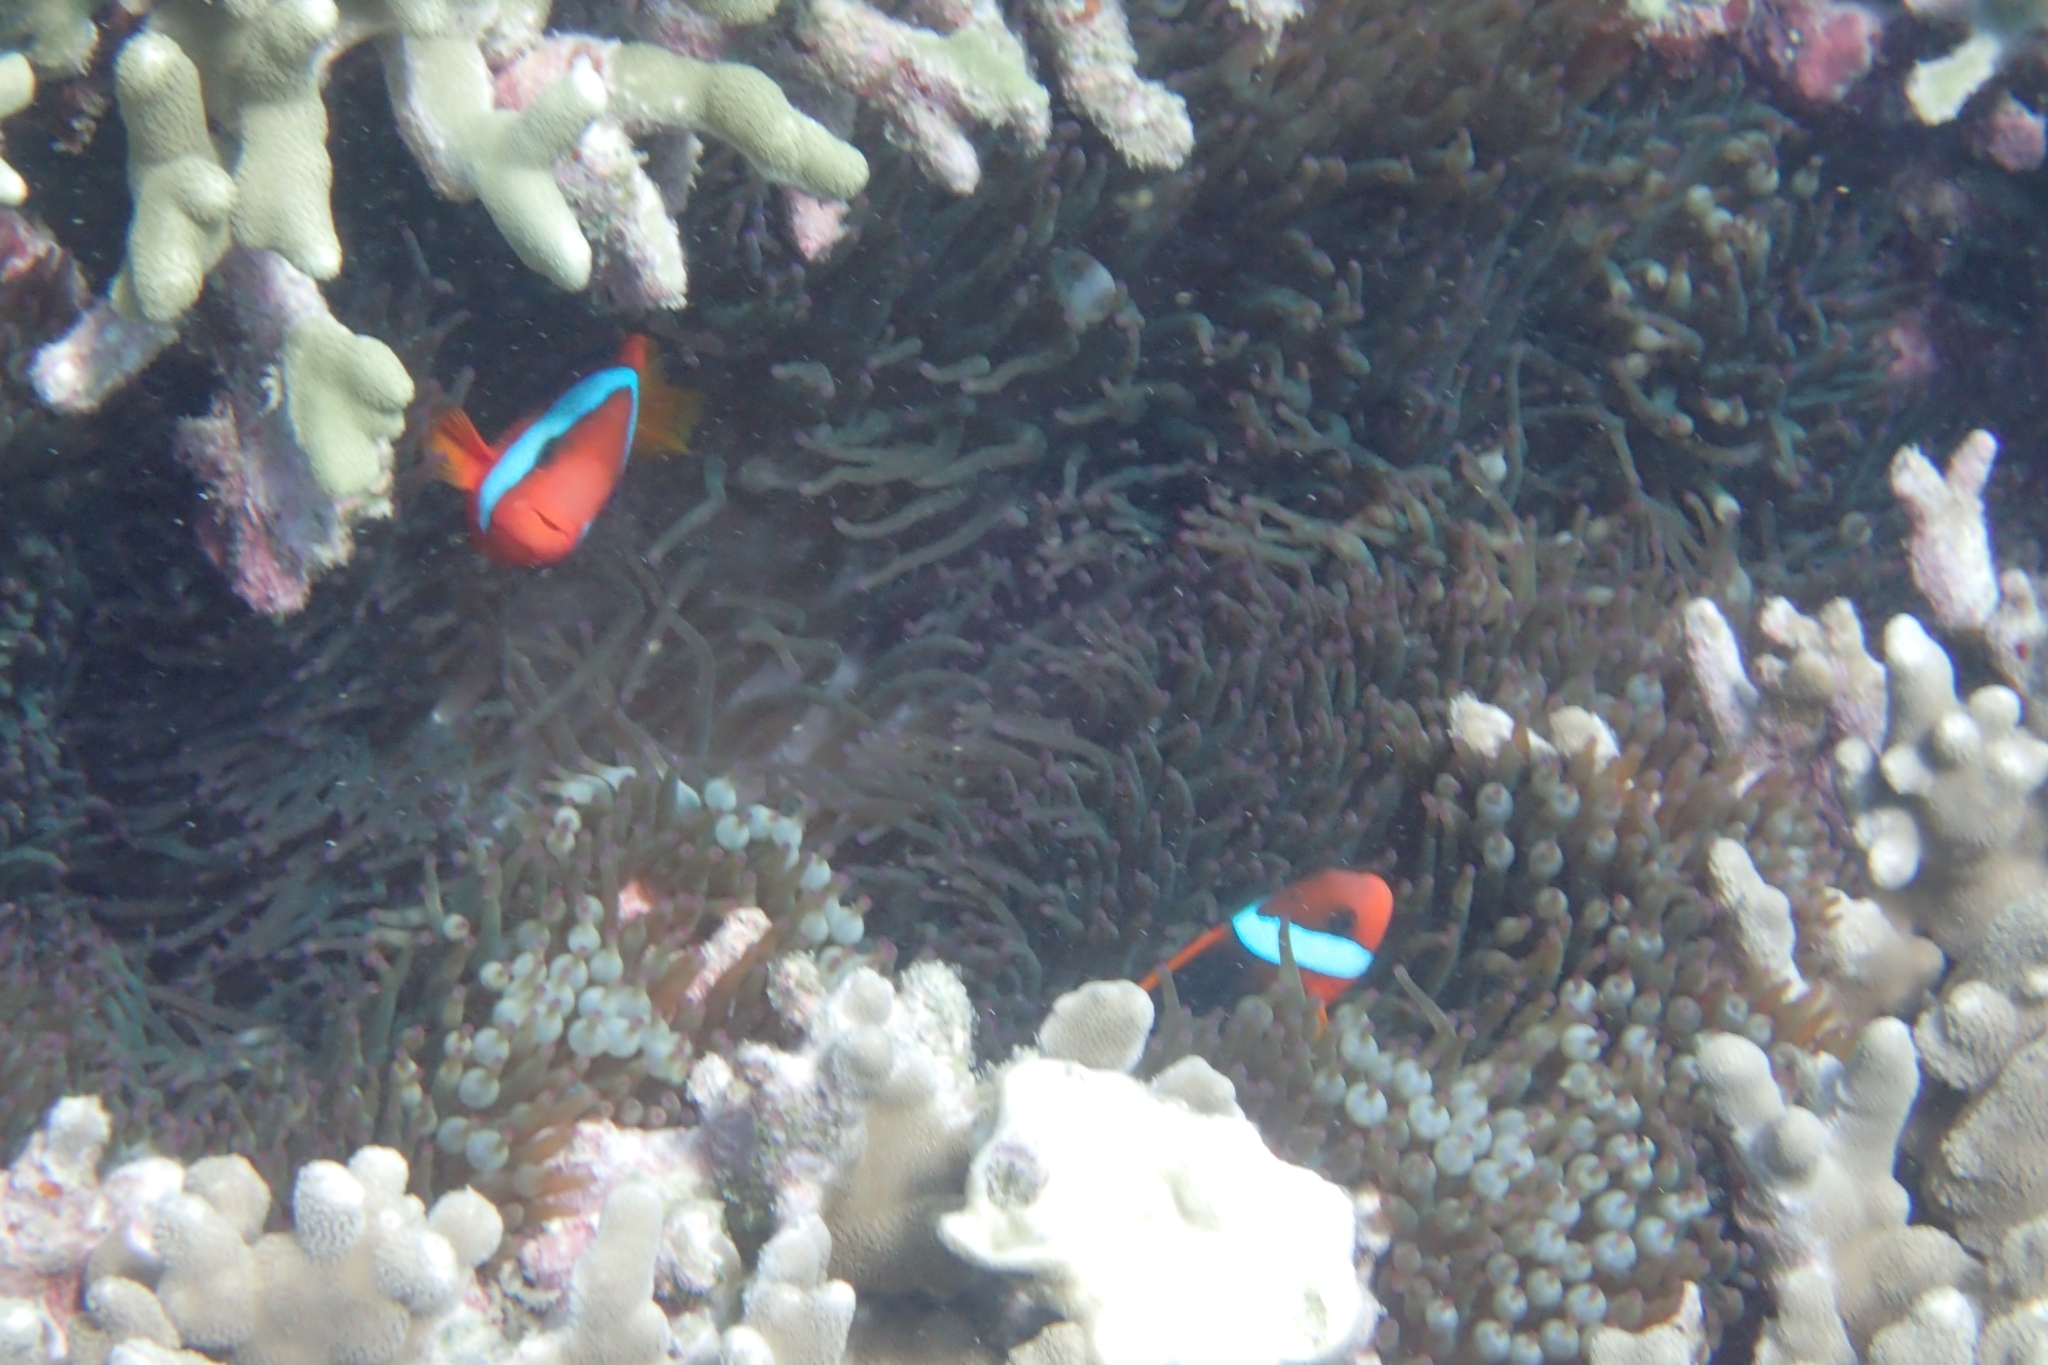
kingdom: Animalia
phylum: Cnidaria
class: Anthozoa
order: Actiniaria
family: Actiniidae
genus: Entacmaea
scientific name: Entacmaea quadricolor
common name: Bulb tentacle sea anemone
